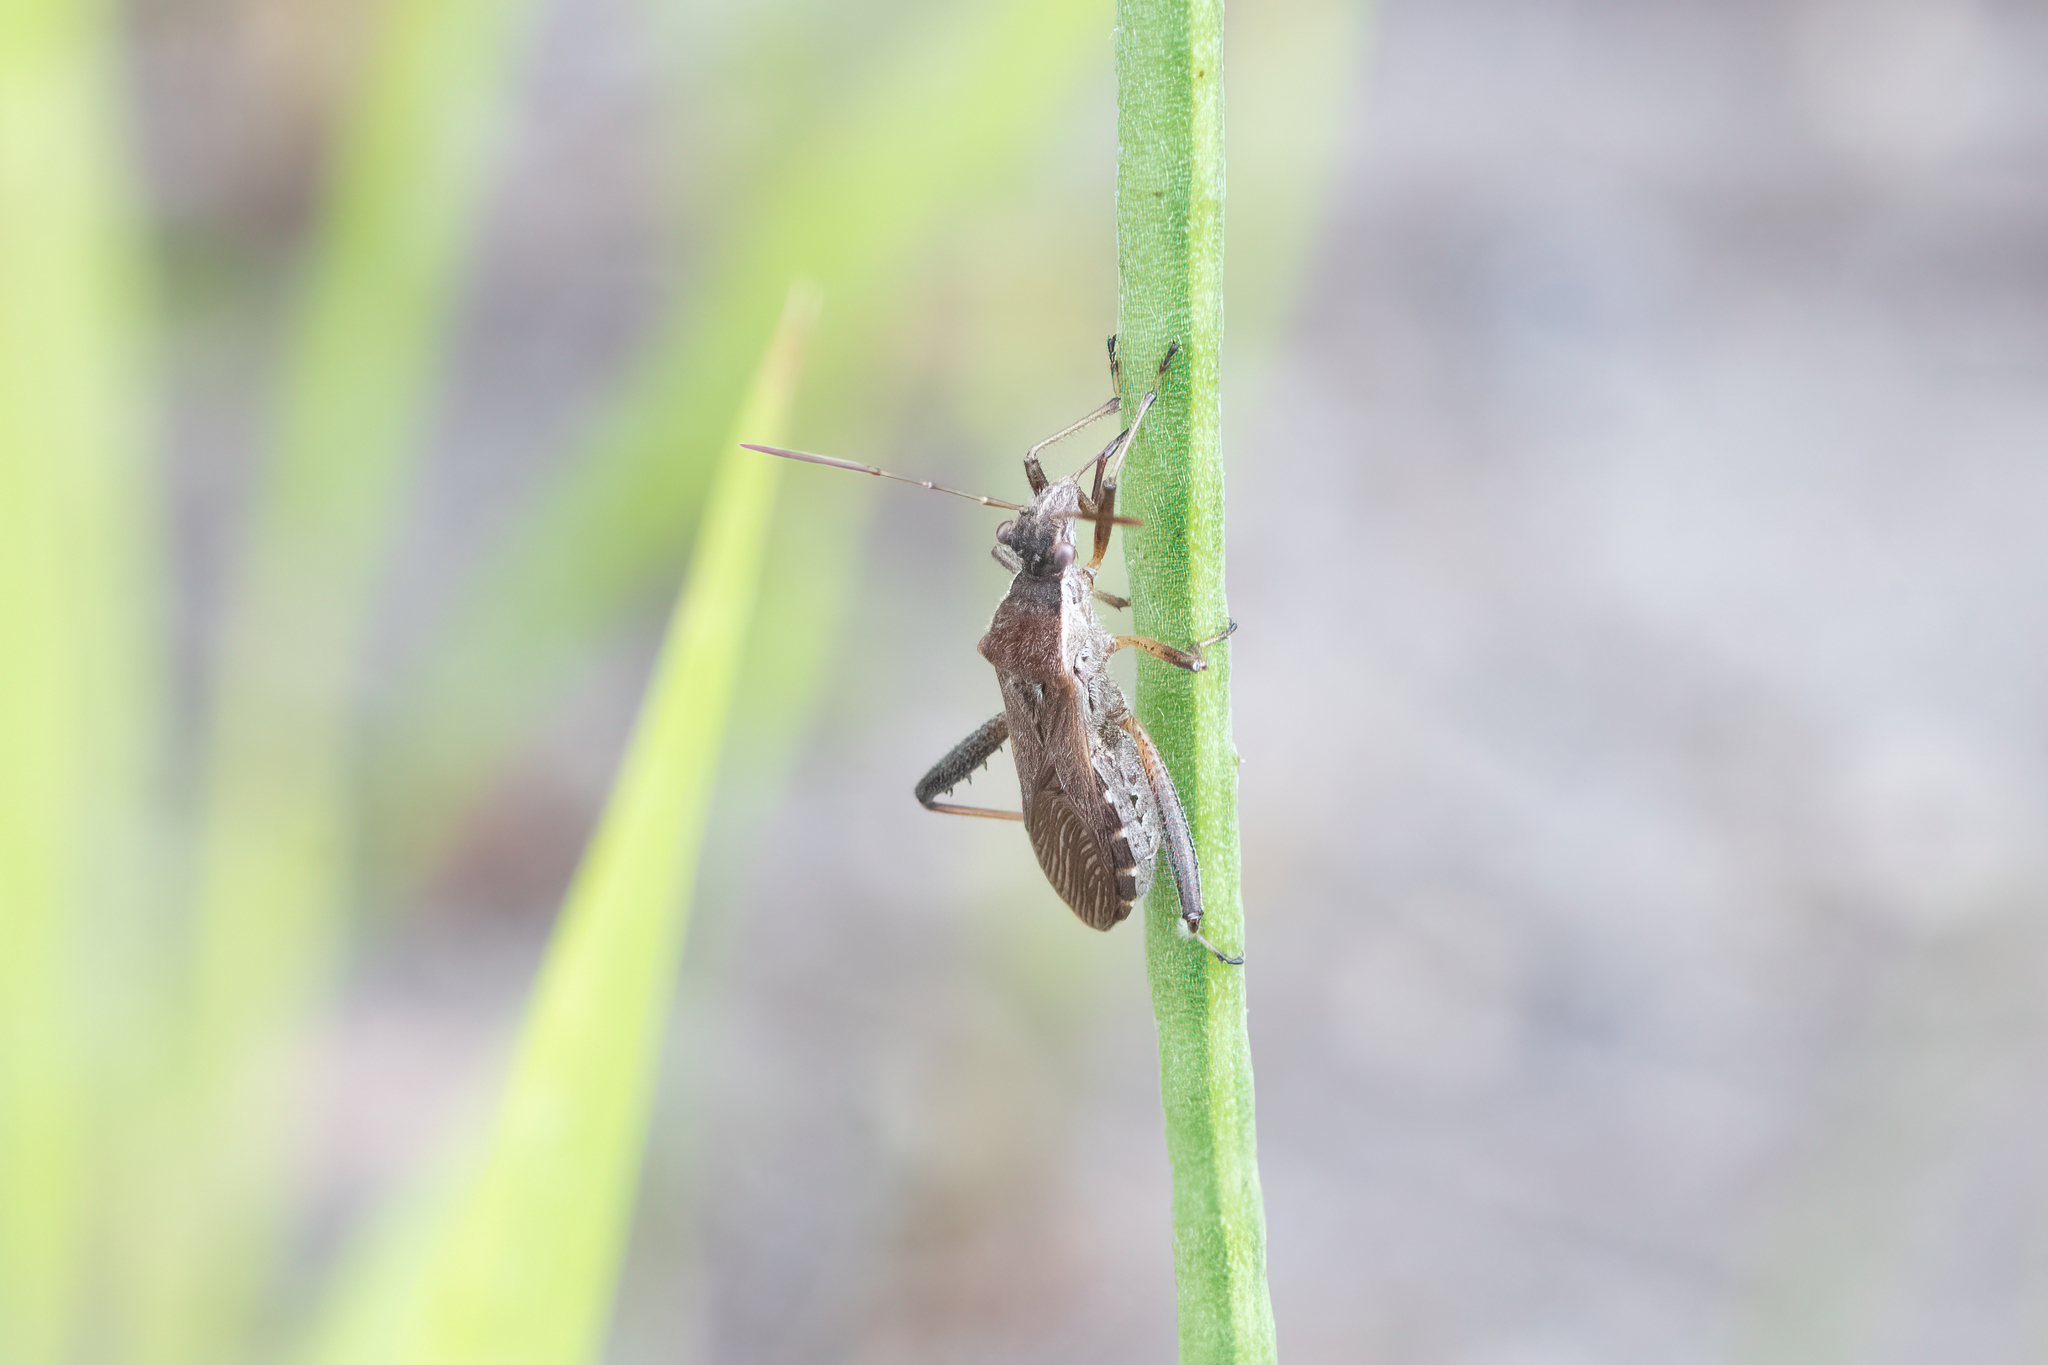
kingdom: Animalia
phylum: Arthropoda
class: Insecta
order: Hemiptera
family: Alydidae
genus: Alydus
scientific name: Alydus pilosulus
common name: Broad-headed bug
